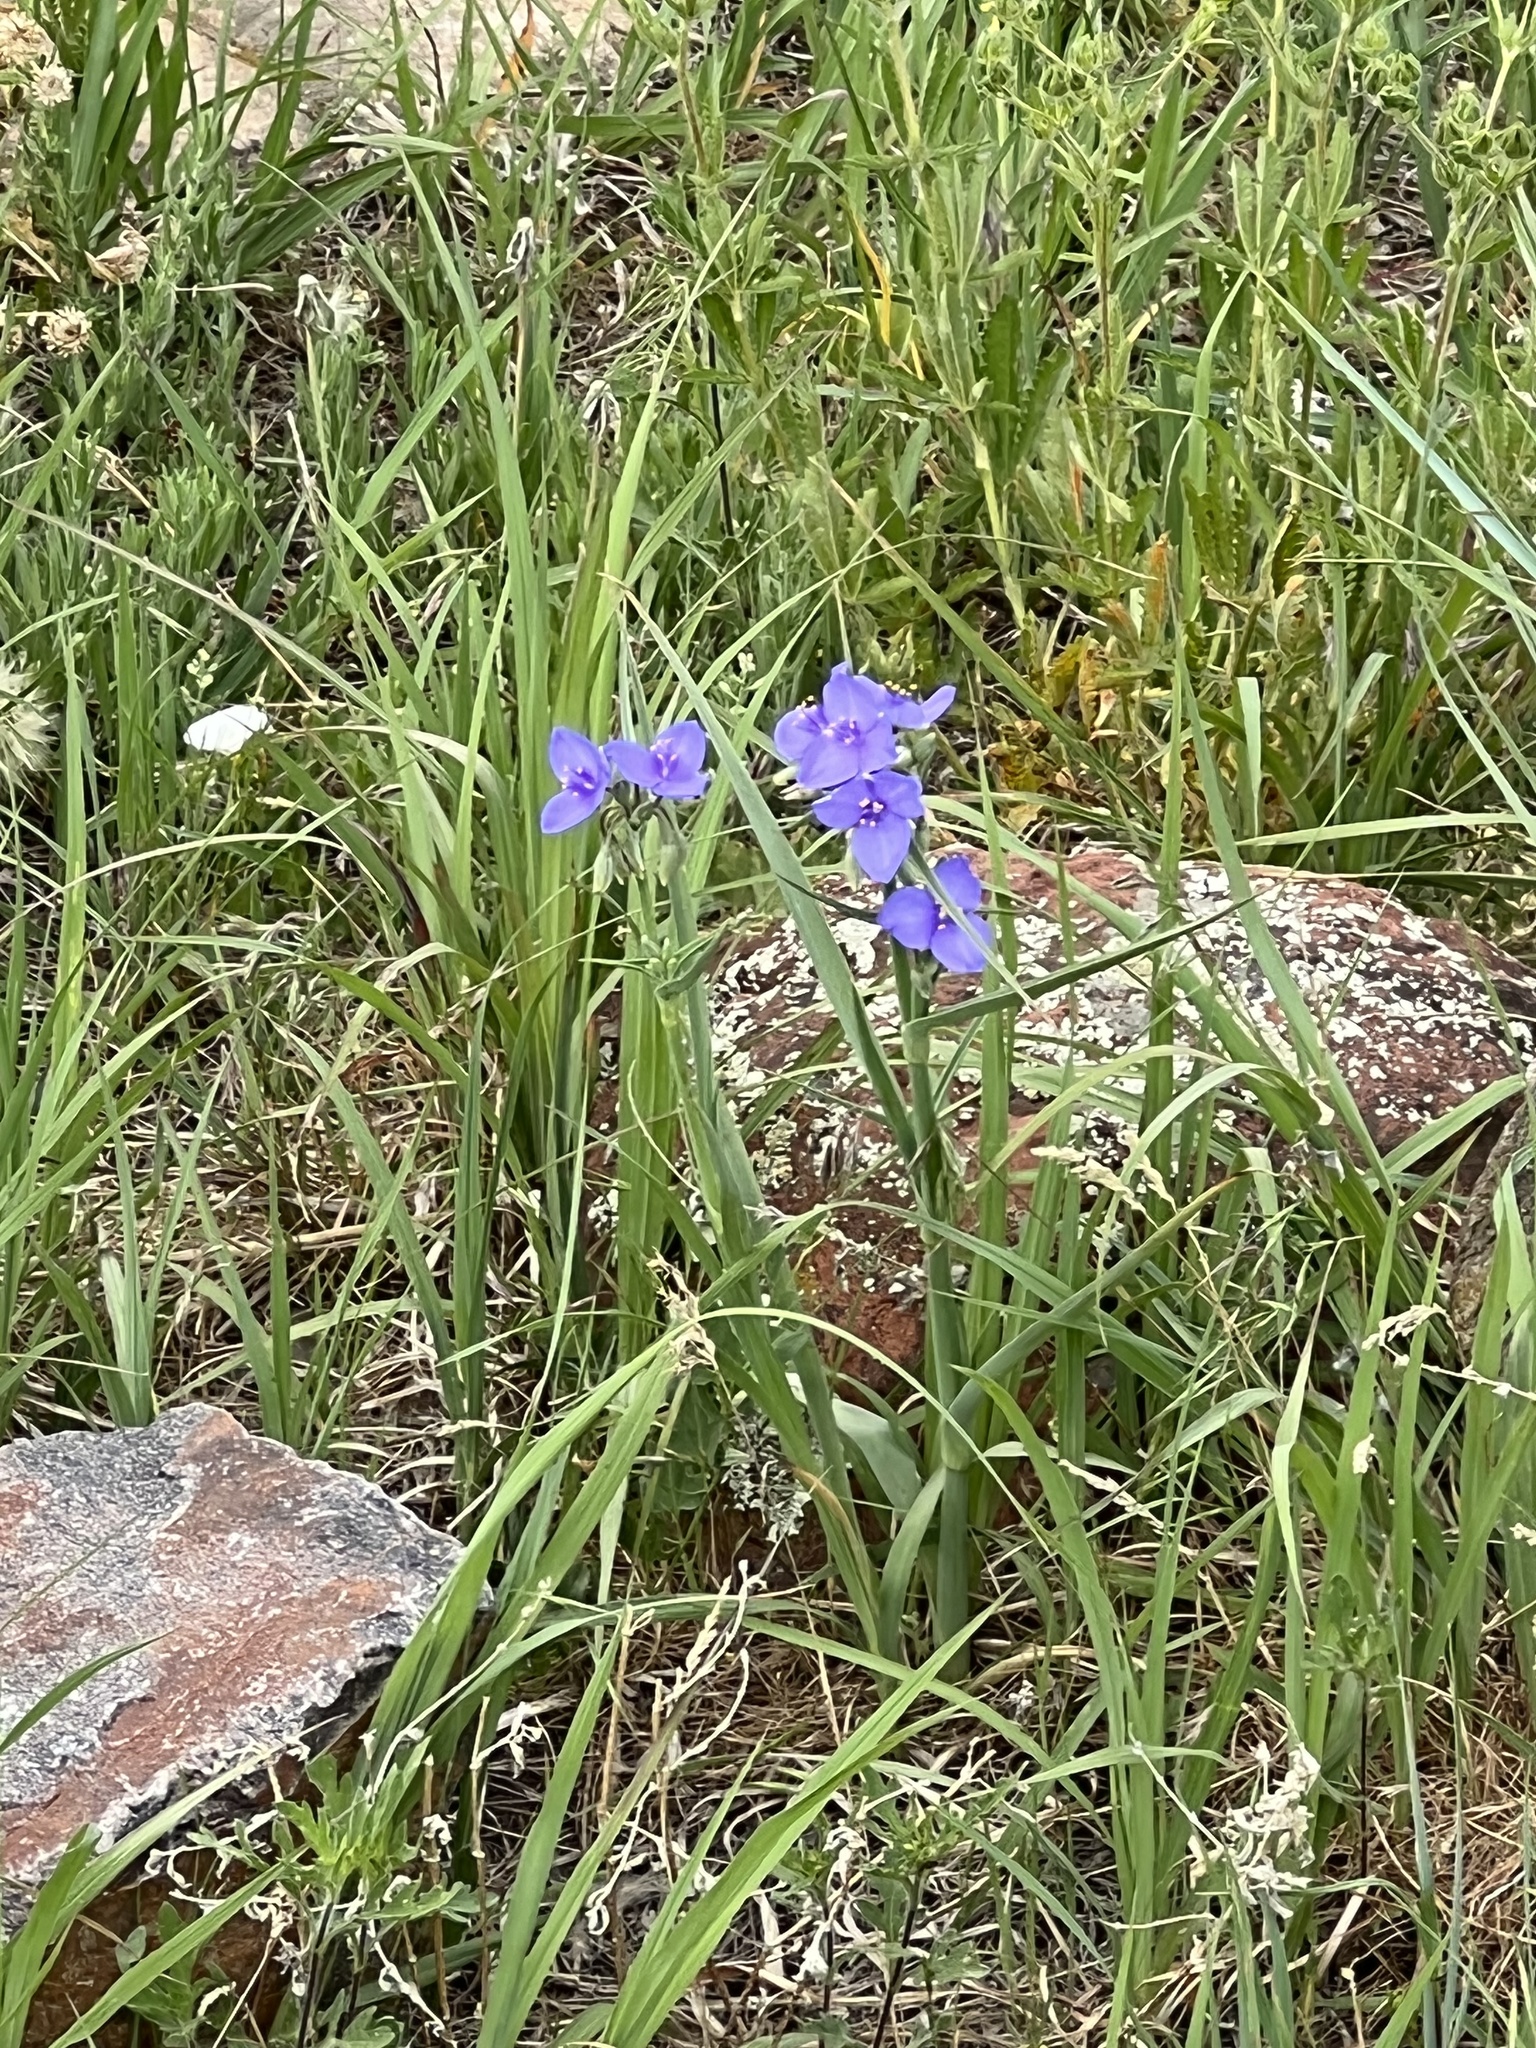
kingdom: Plantae
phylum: Tracheophyta
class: Liliopsida
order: Commelinales
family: Commelinaceae
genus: Tradescantia
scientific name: Tradescantia occidentalis
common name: Prairie spiderwort
